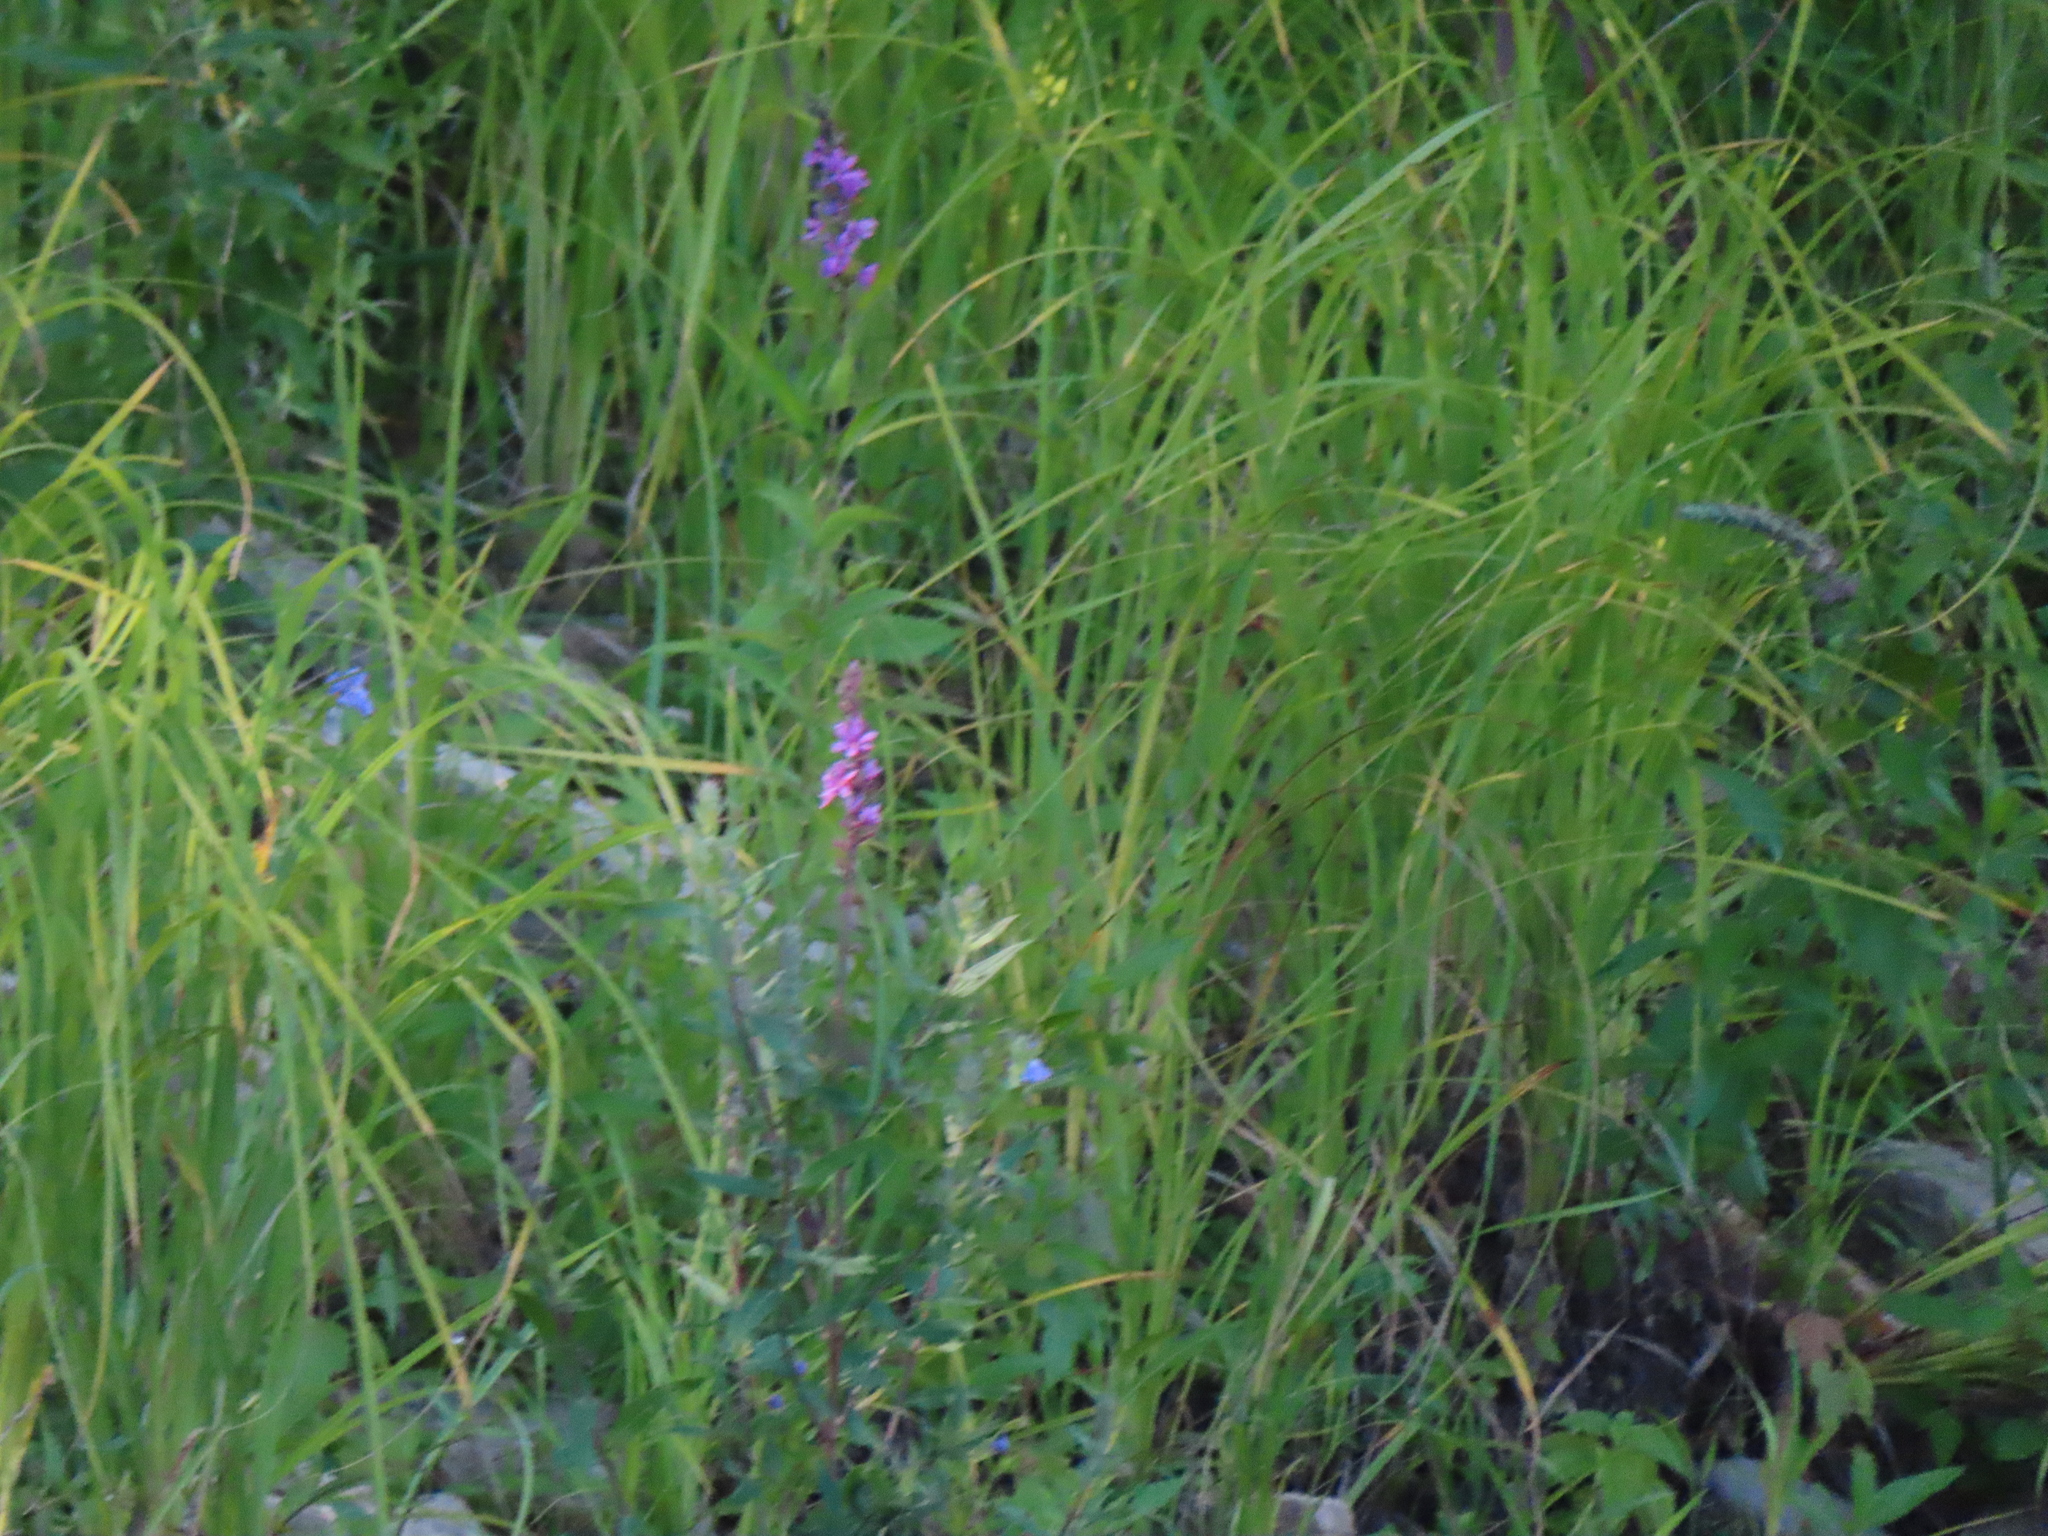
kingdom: Plantae
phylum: Tracheophyta
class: Magnoliopsida
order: Myrtales
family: Lythraceae
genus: Lythrum
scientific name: Lythrum salicaria
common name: Purple loosestrife
